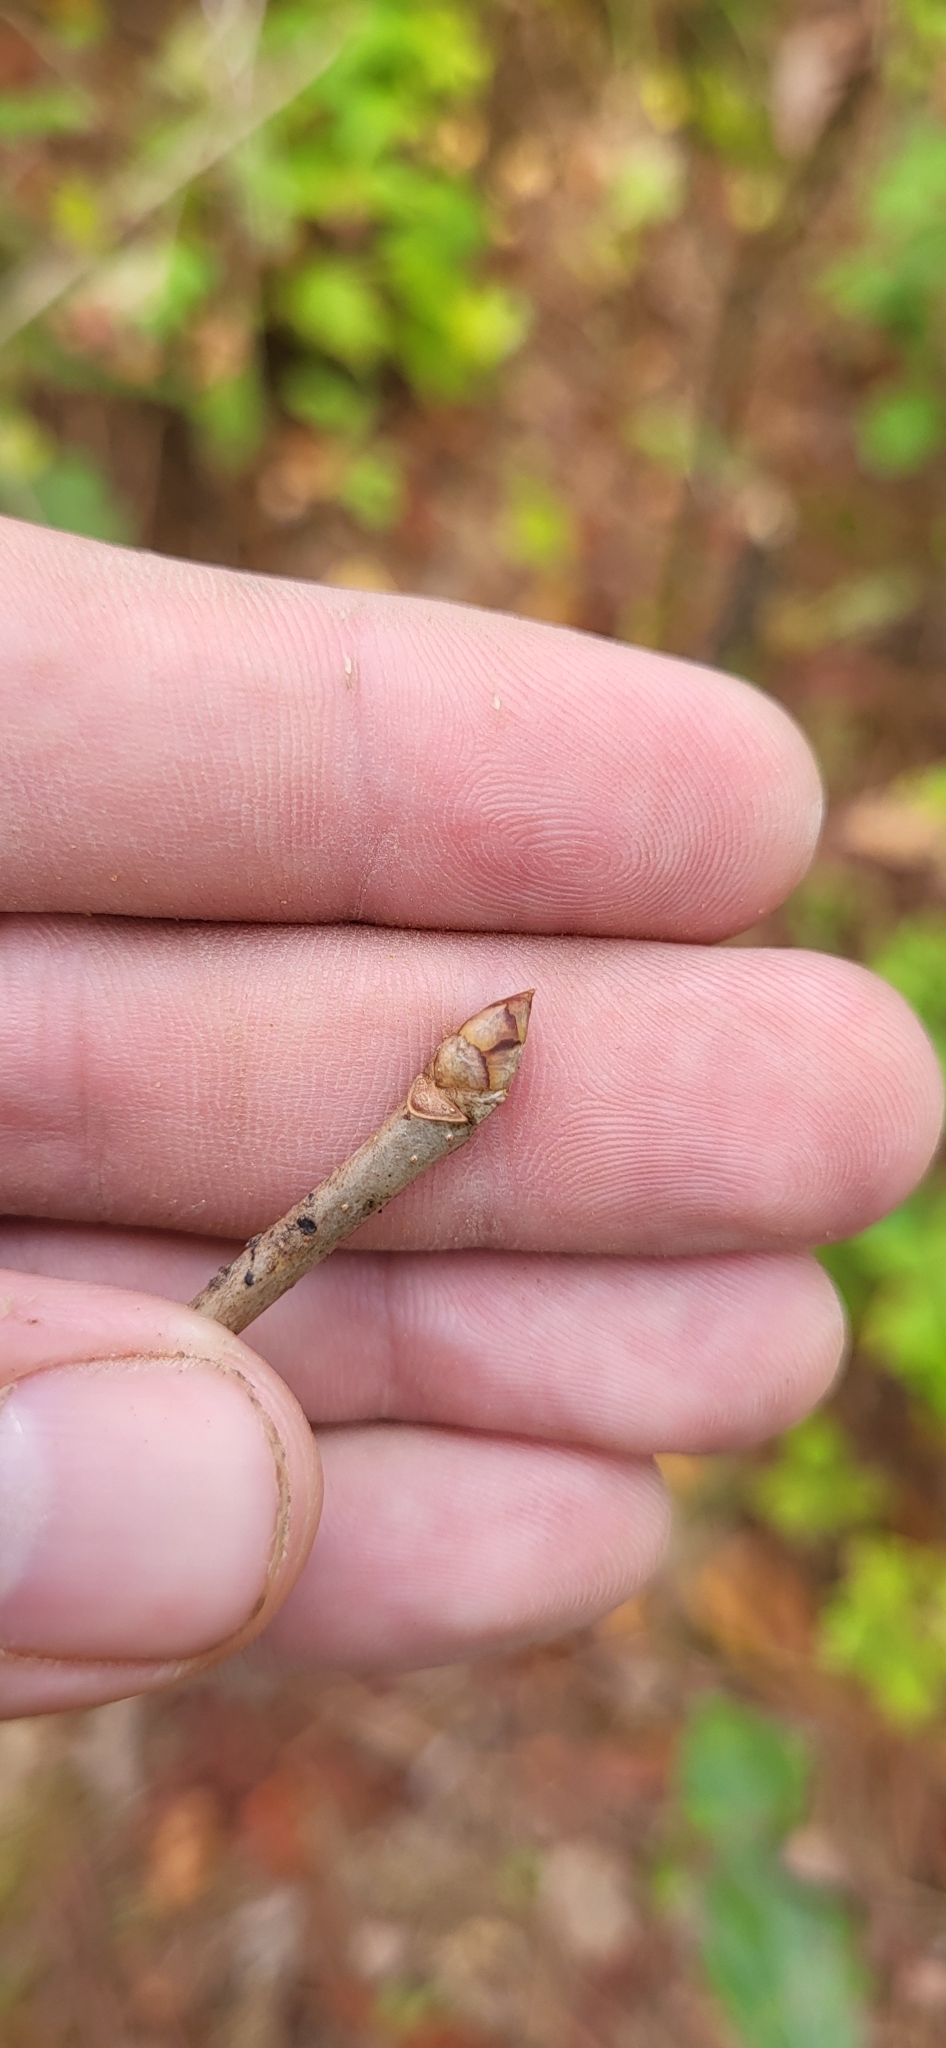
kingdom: Plantae
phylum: Tracheophyta
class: Magnoliopsida
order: Sapindales
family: Sapindaceae
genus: Aesculus
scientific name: Aesculus pavia
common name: Red buckeye
